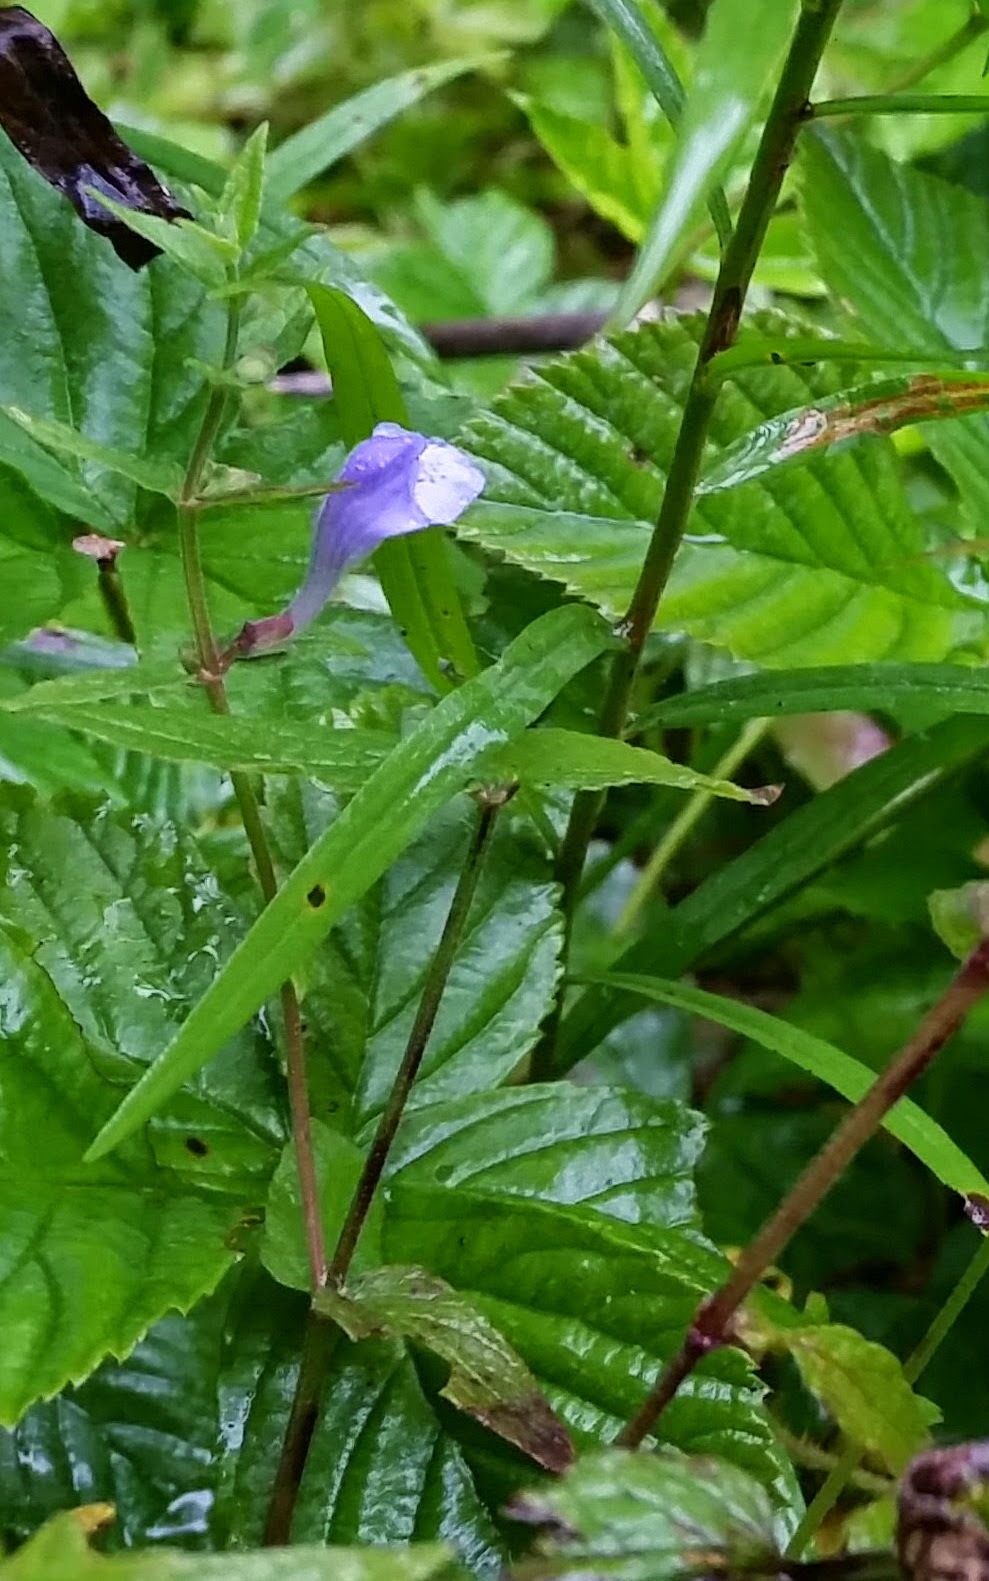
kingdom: Plantae
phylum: Tracheophyta
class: Magnoliopsida
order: Lamiales
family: Lamiaceae
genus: Scutellaria
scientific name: Scutellaria galericulata
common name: Skullcap
